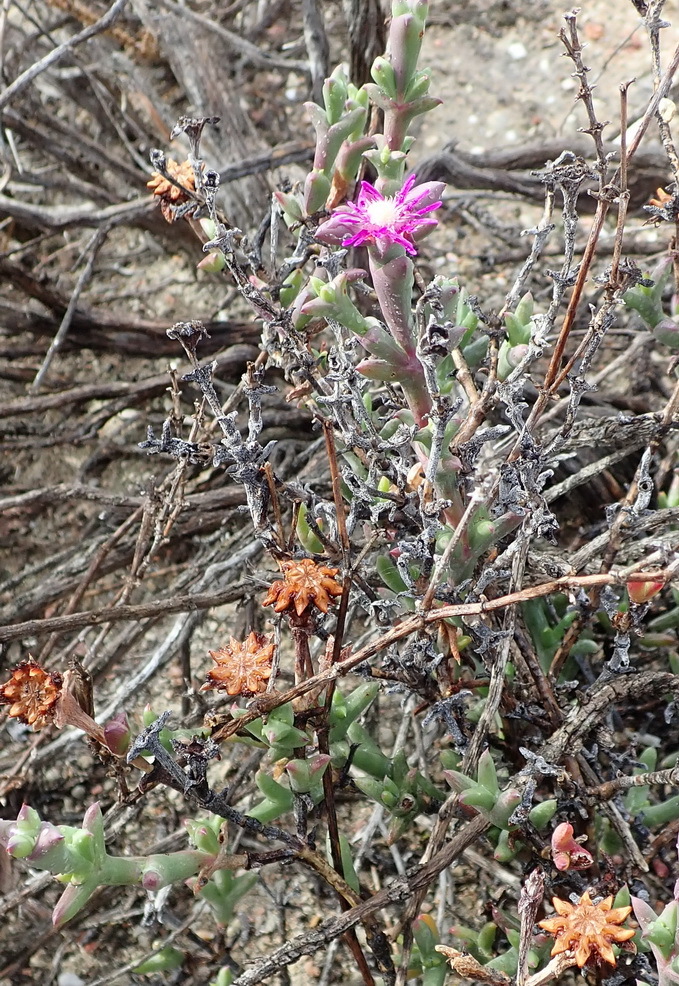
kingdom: Plantae
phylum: Tracheophyta
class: Magnoliopsida
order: Caryophyllales
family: Aizoaceae
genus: Smicrostigma
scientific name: Smicrostigma viride
